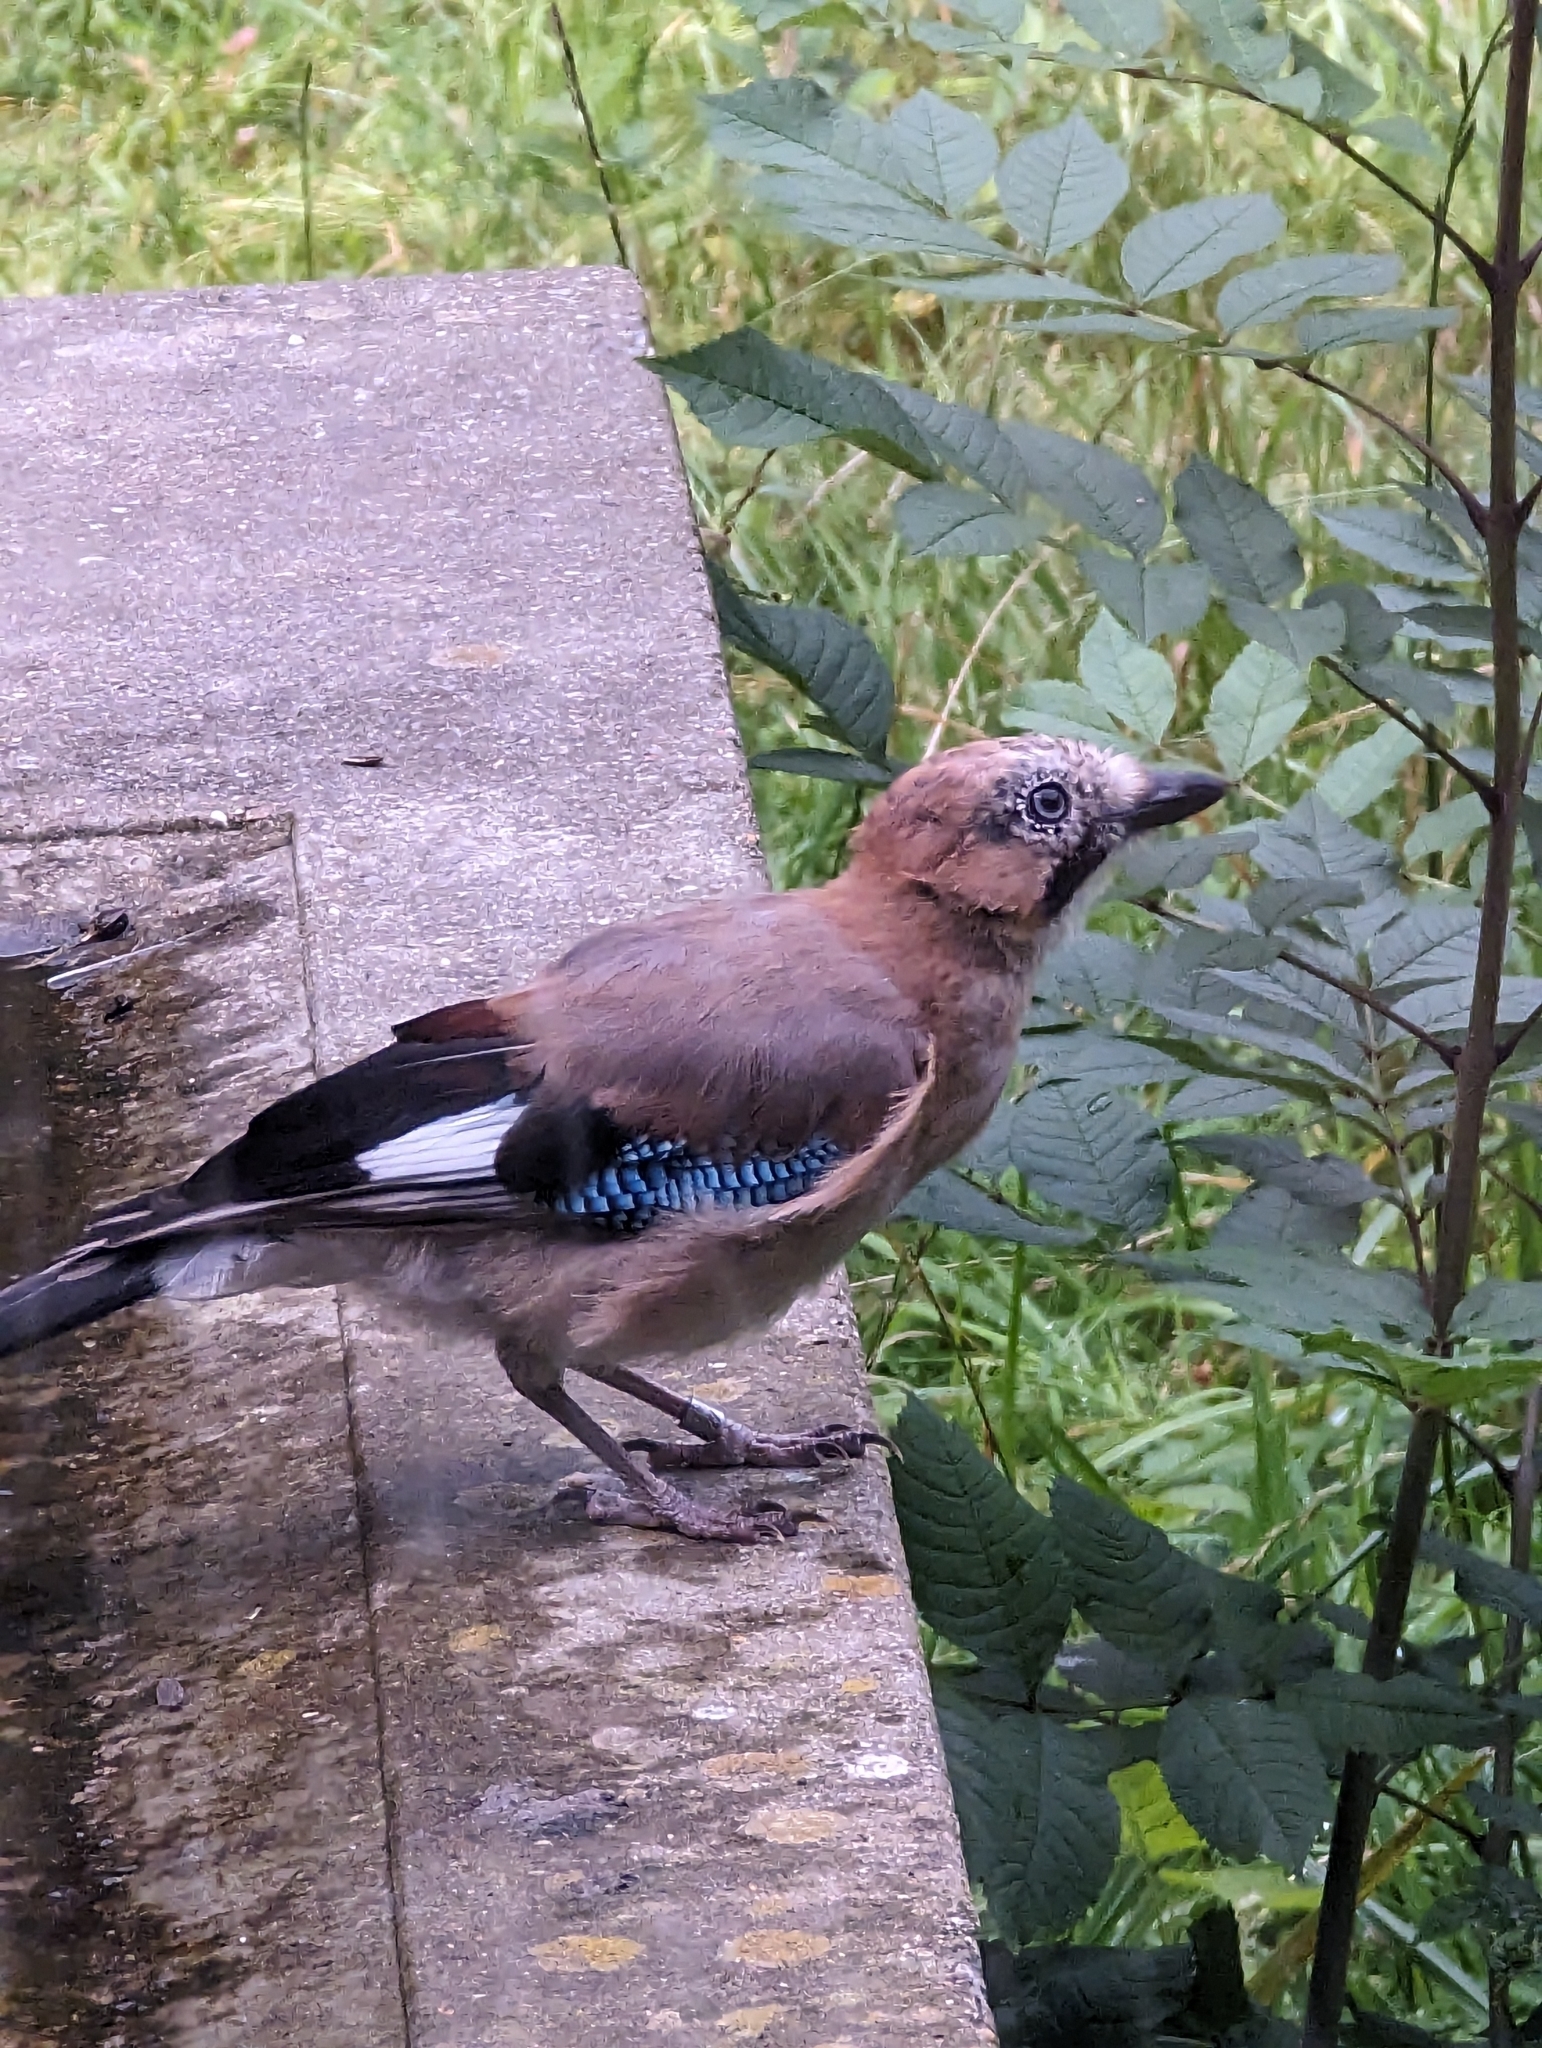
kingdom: Animalia
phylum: Chordata
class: Aves
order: Passeriformes
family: Corvidae
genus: Garrulus
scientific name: Garrulus glandarius
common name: Eurasian jay
